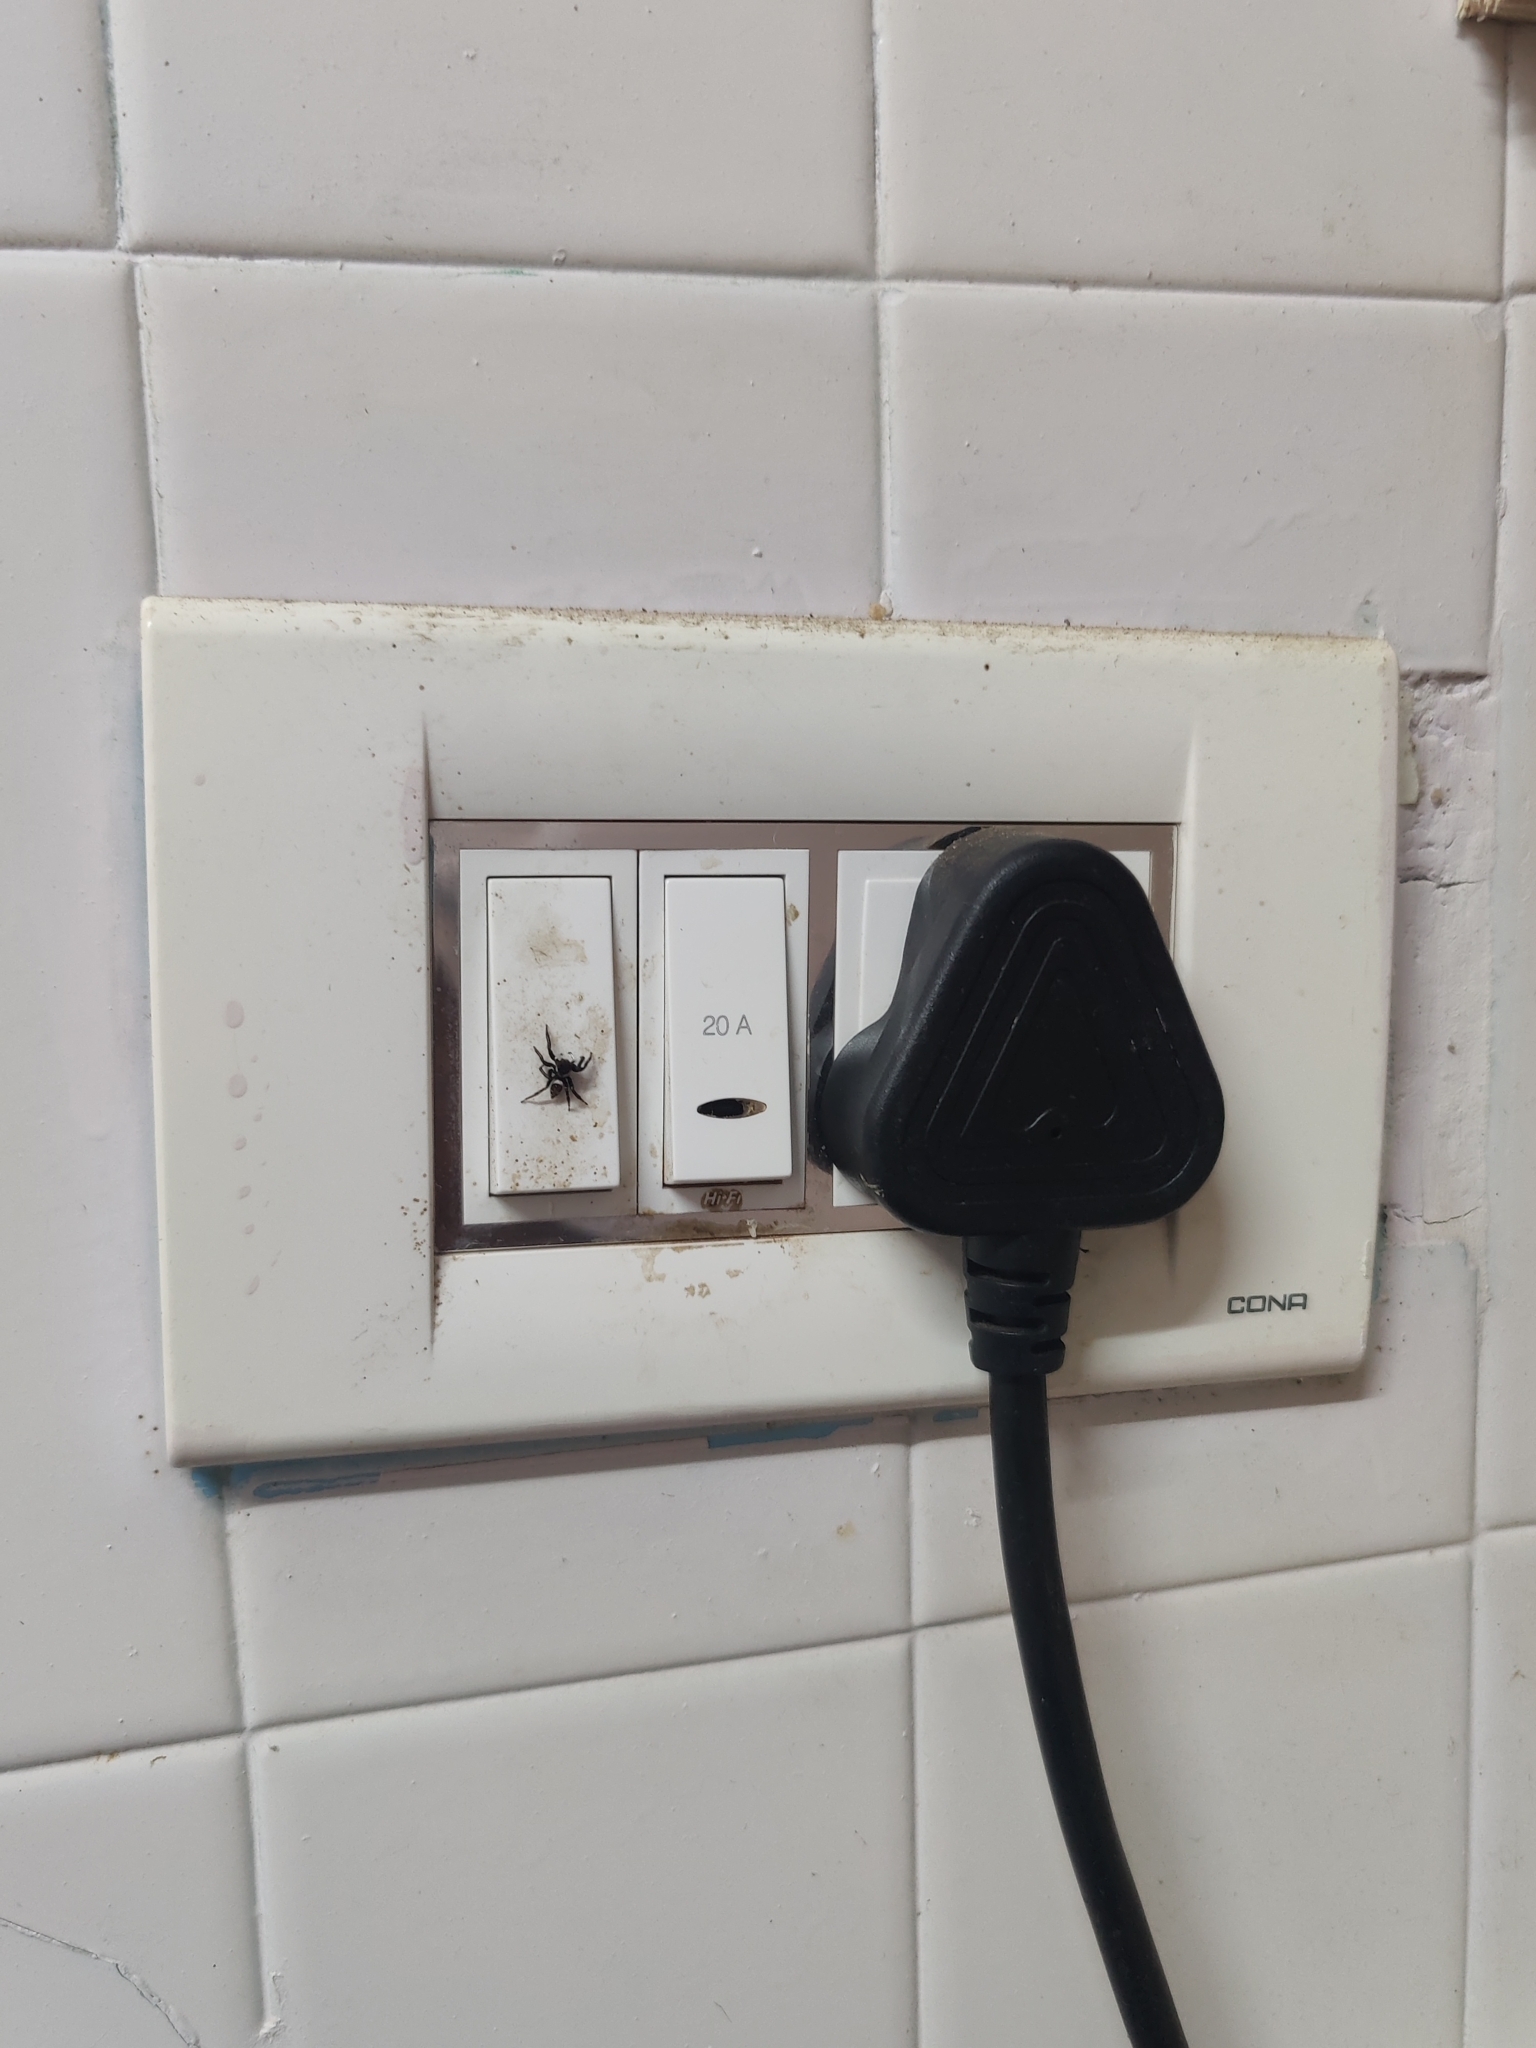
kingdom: Animalia
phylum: Arthropoda
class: Arachnida
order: Araneae
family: Salticidae
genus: Hasarius
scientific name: Hasarius adansoni
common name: Jumping spider
